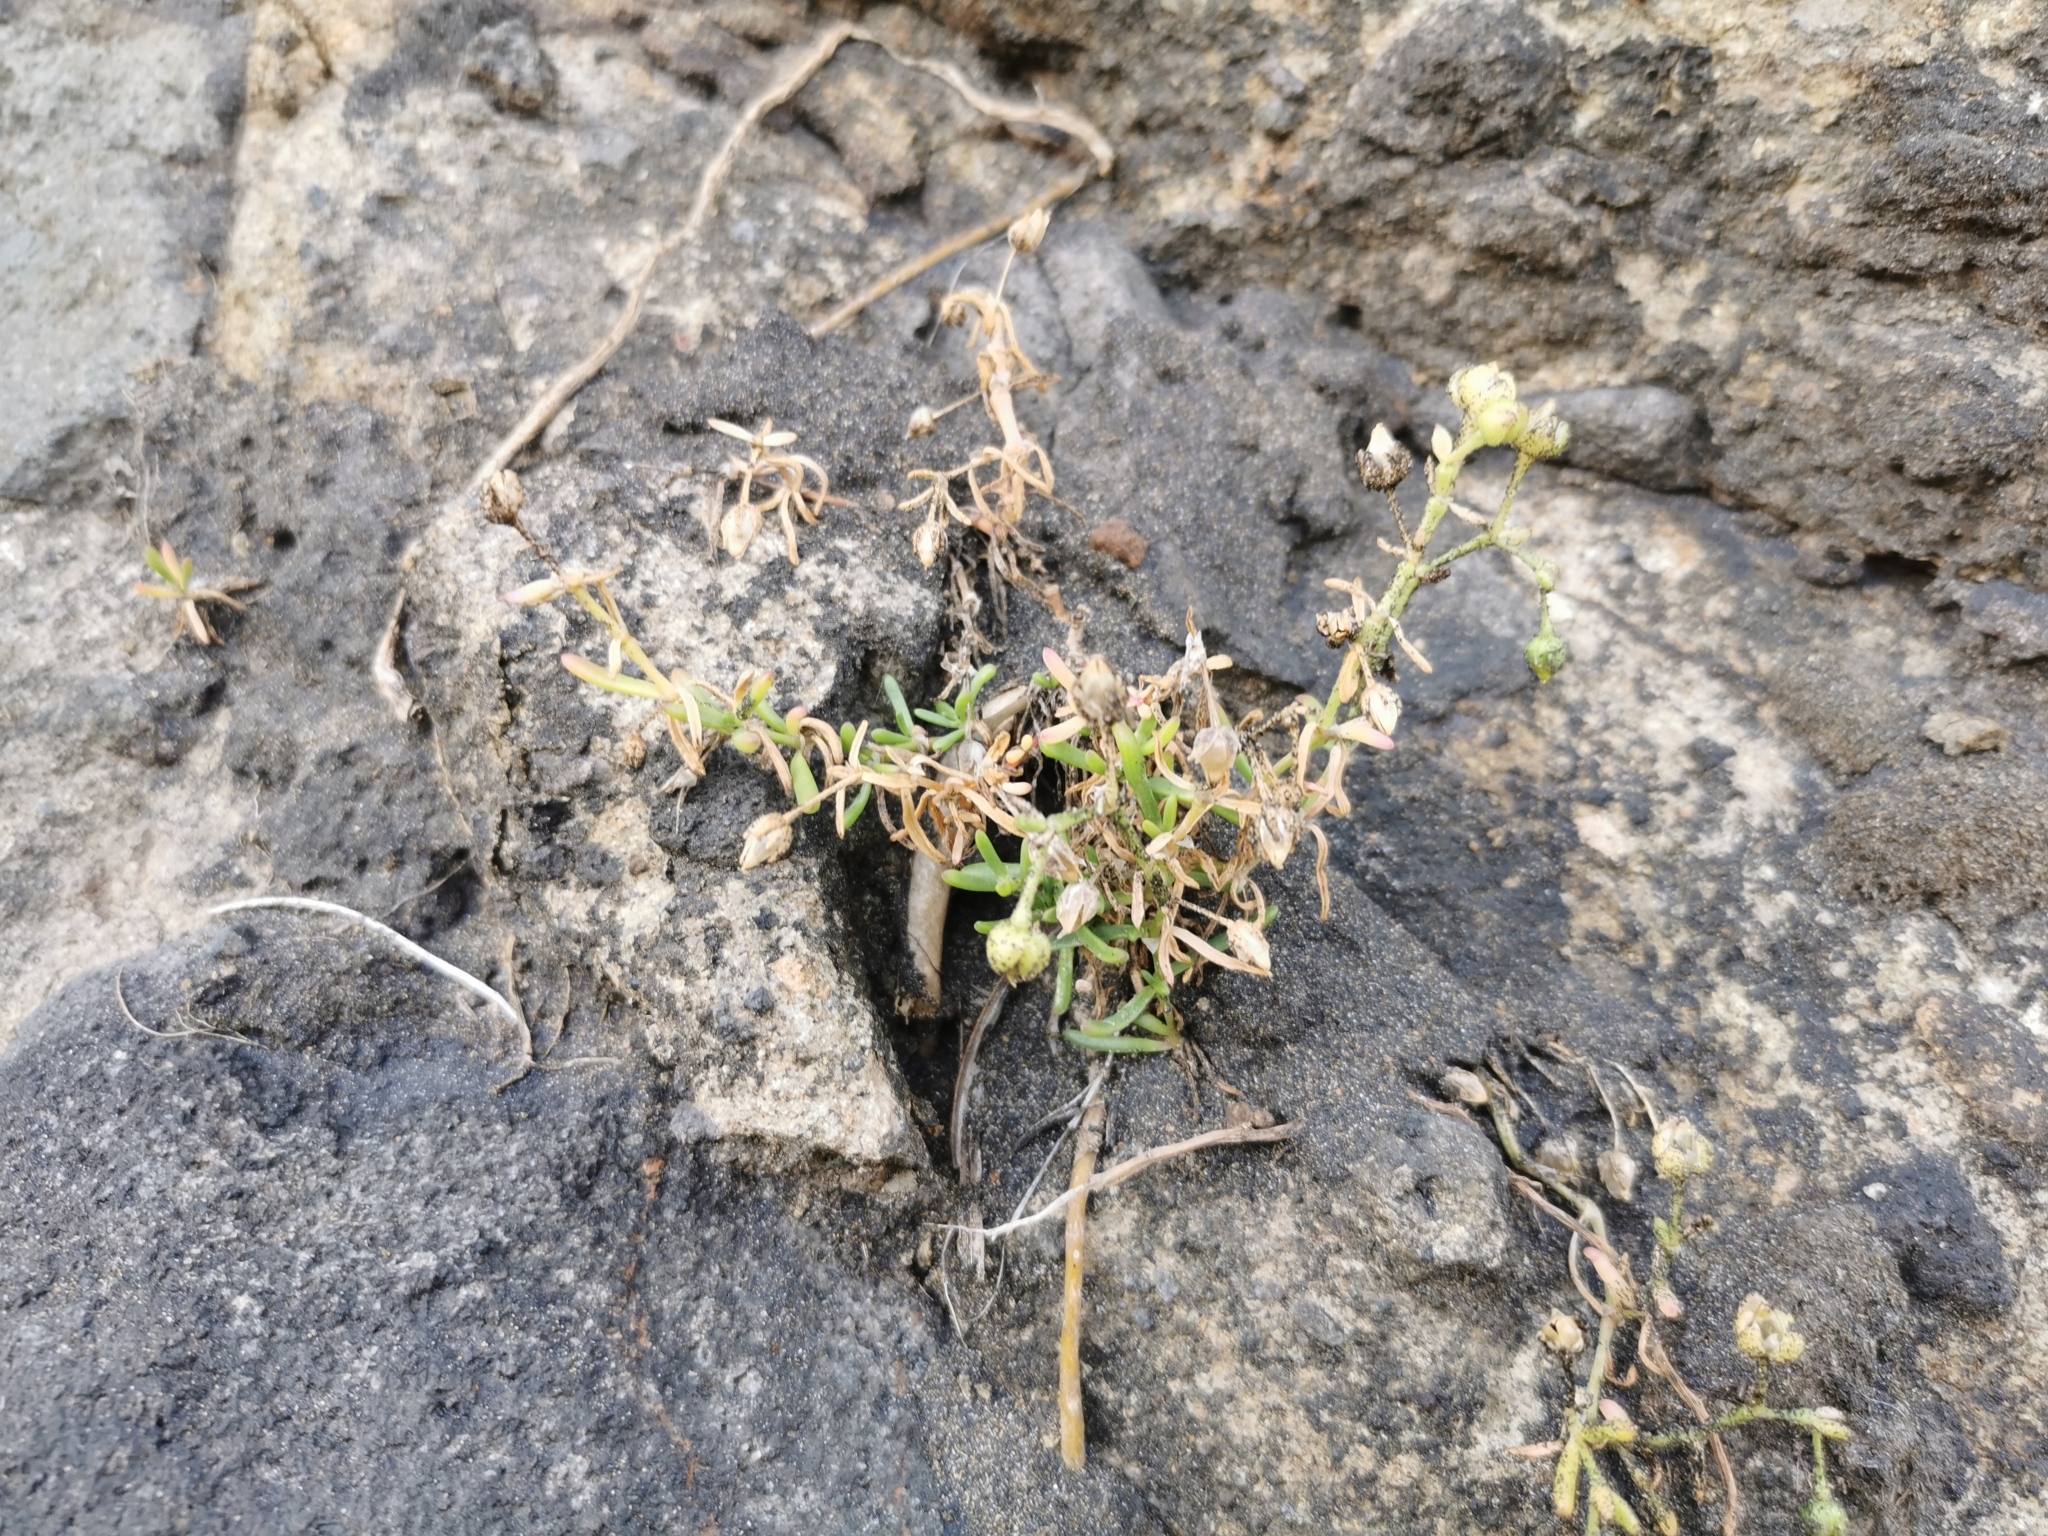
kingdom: Plantae
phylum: Tracheophyta
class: Magnoliopsida
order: Caryophyllales
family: Caryophyllaceae
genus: Spergularia
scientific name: Spergularia media
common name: Greater sea-spurrey
